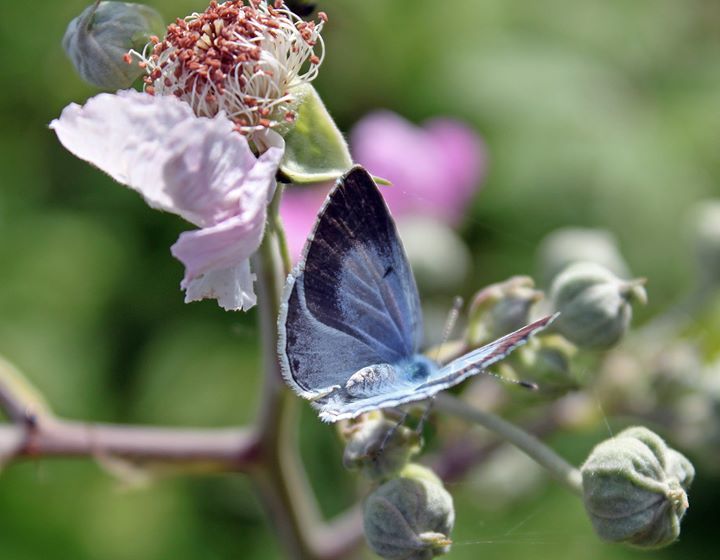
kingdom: Animalia
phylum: Arthropoda
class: Insecta
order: Lepidoptera
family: Lycaenidae
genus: Celastrina
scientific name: Celastrina argiolus
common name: Holly blue
